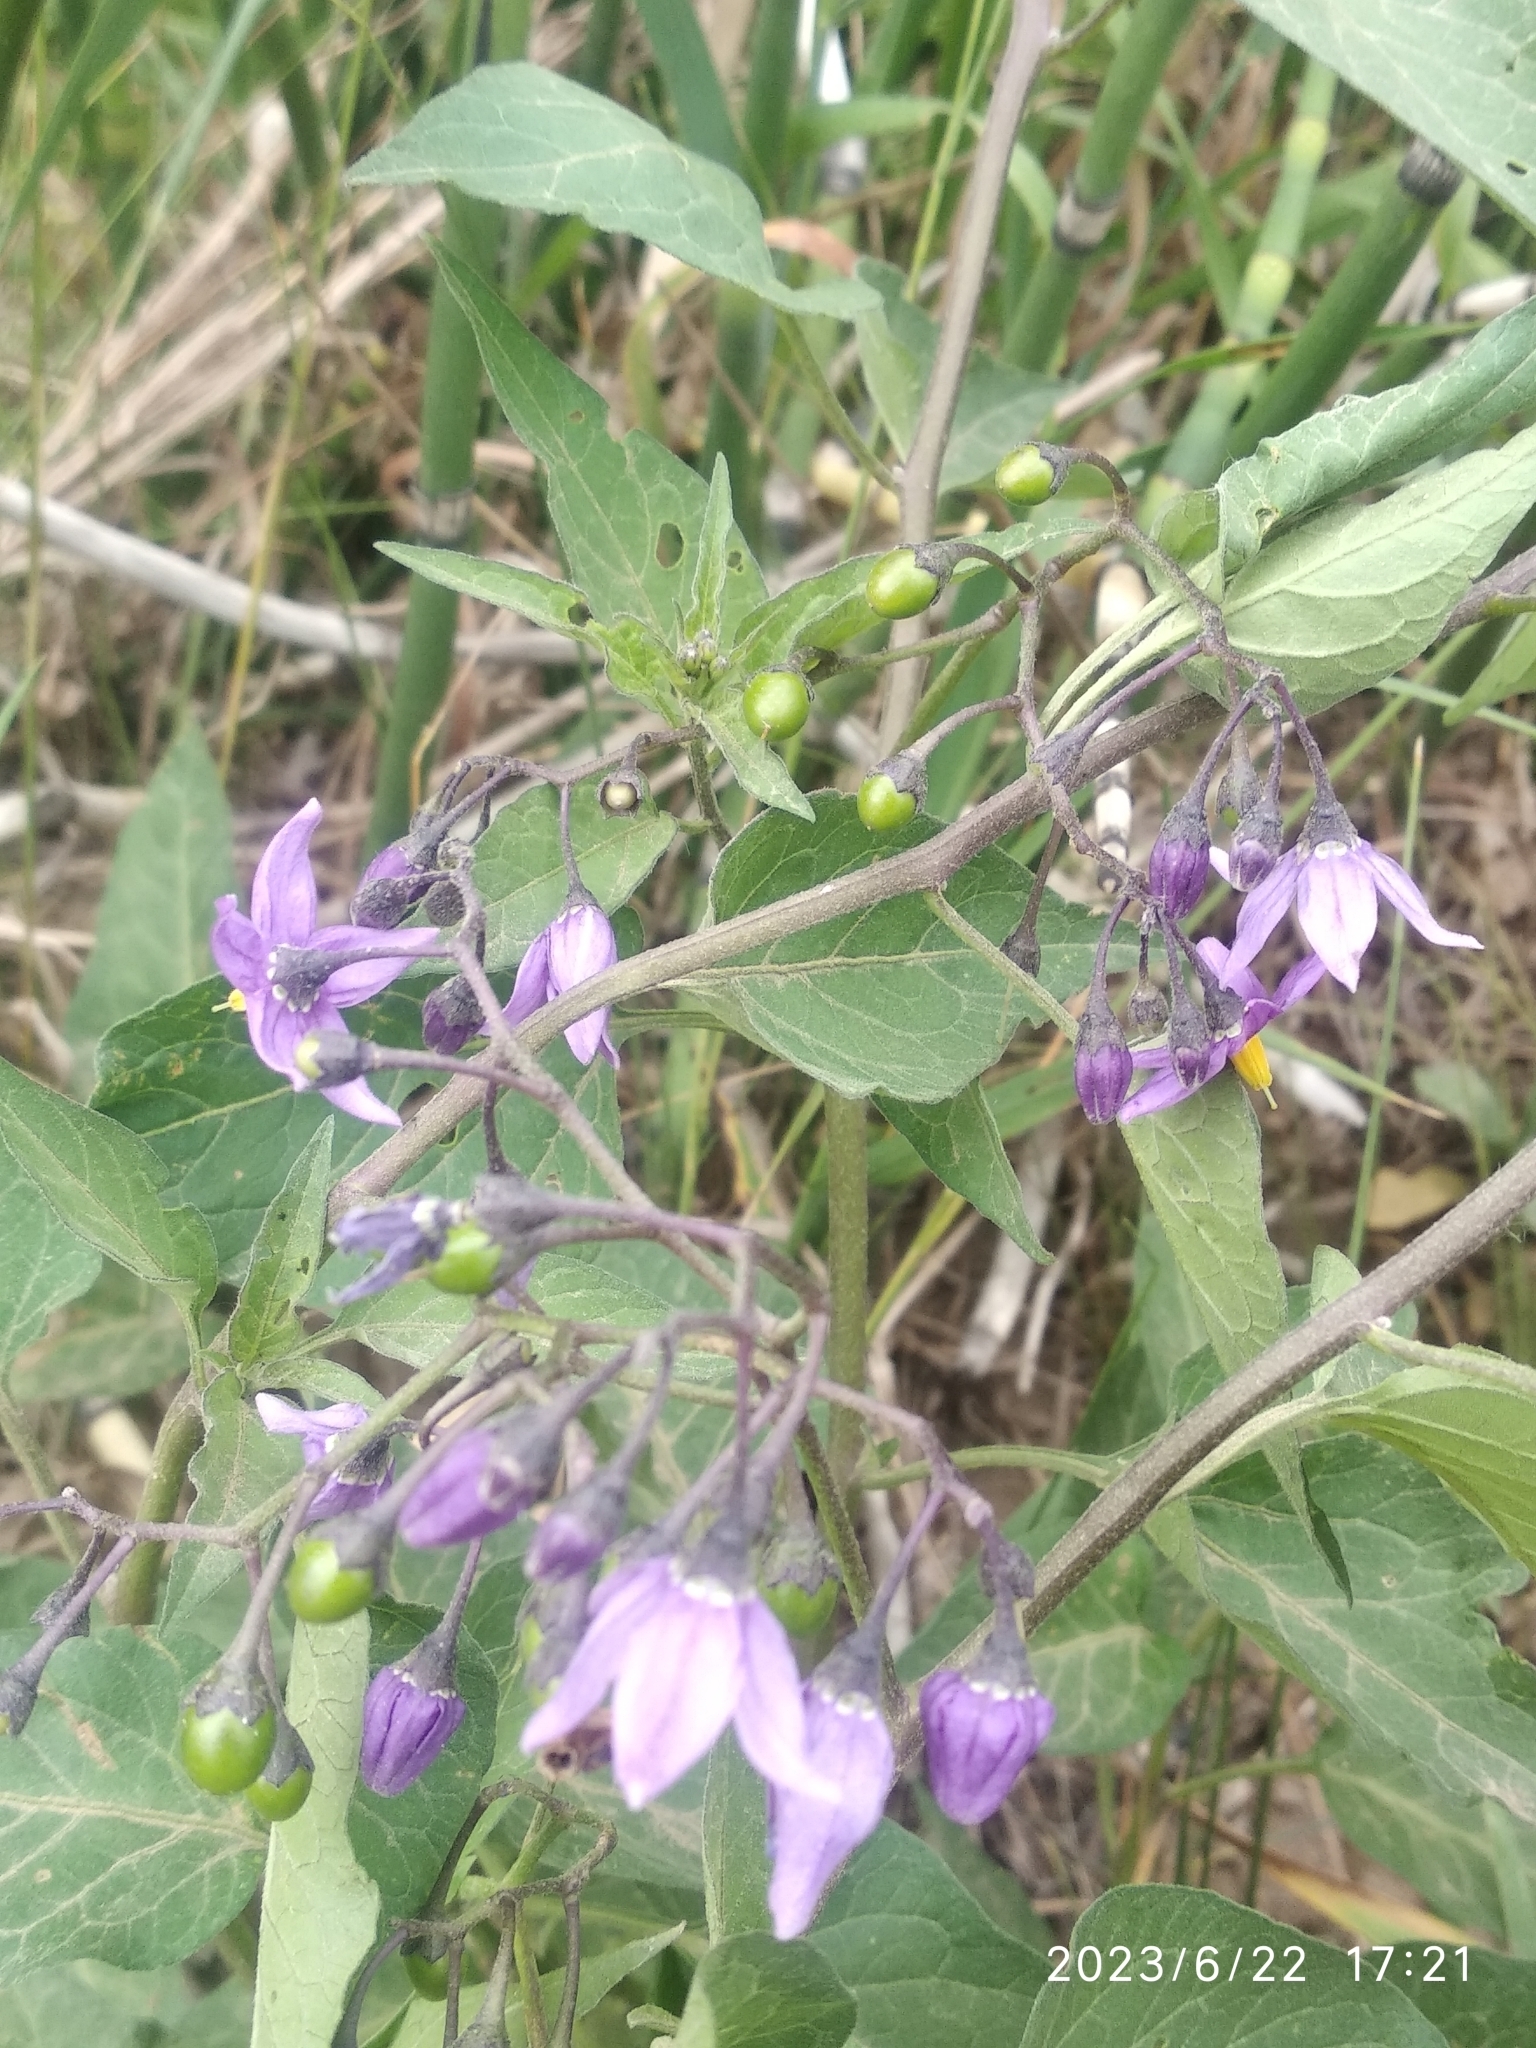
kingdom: Plantae
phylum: Tracheophyta
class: Magnoliopsida
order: Solanales
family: Solanaceae
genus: Solanum
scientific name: Solanum dulcamara
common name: Climbing nightshade
